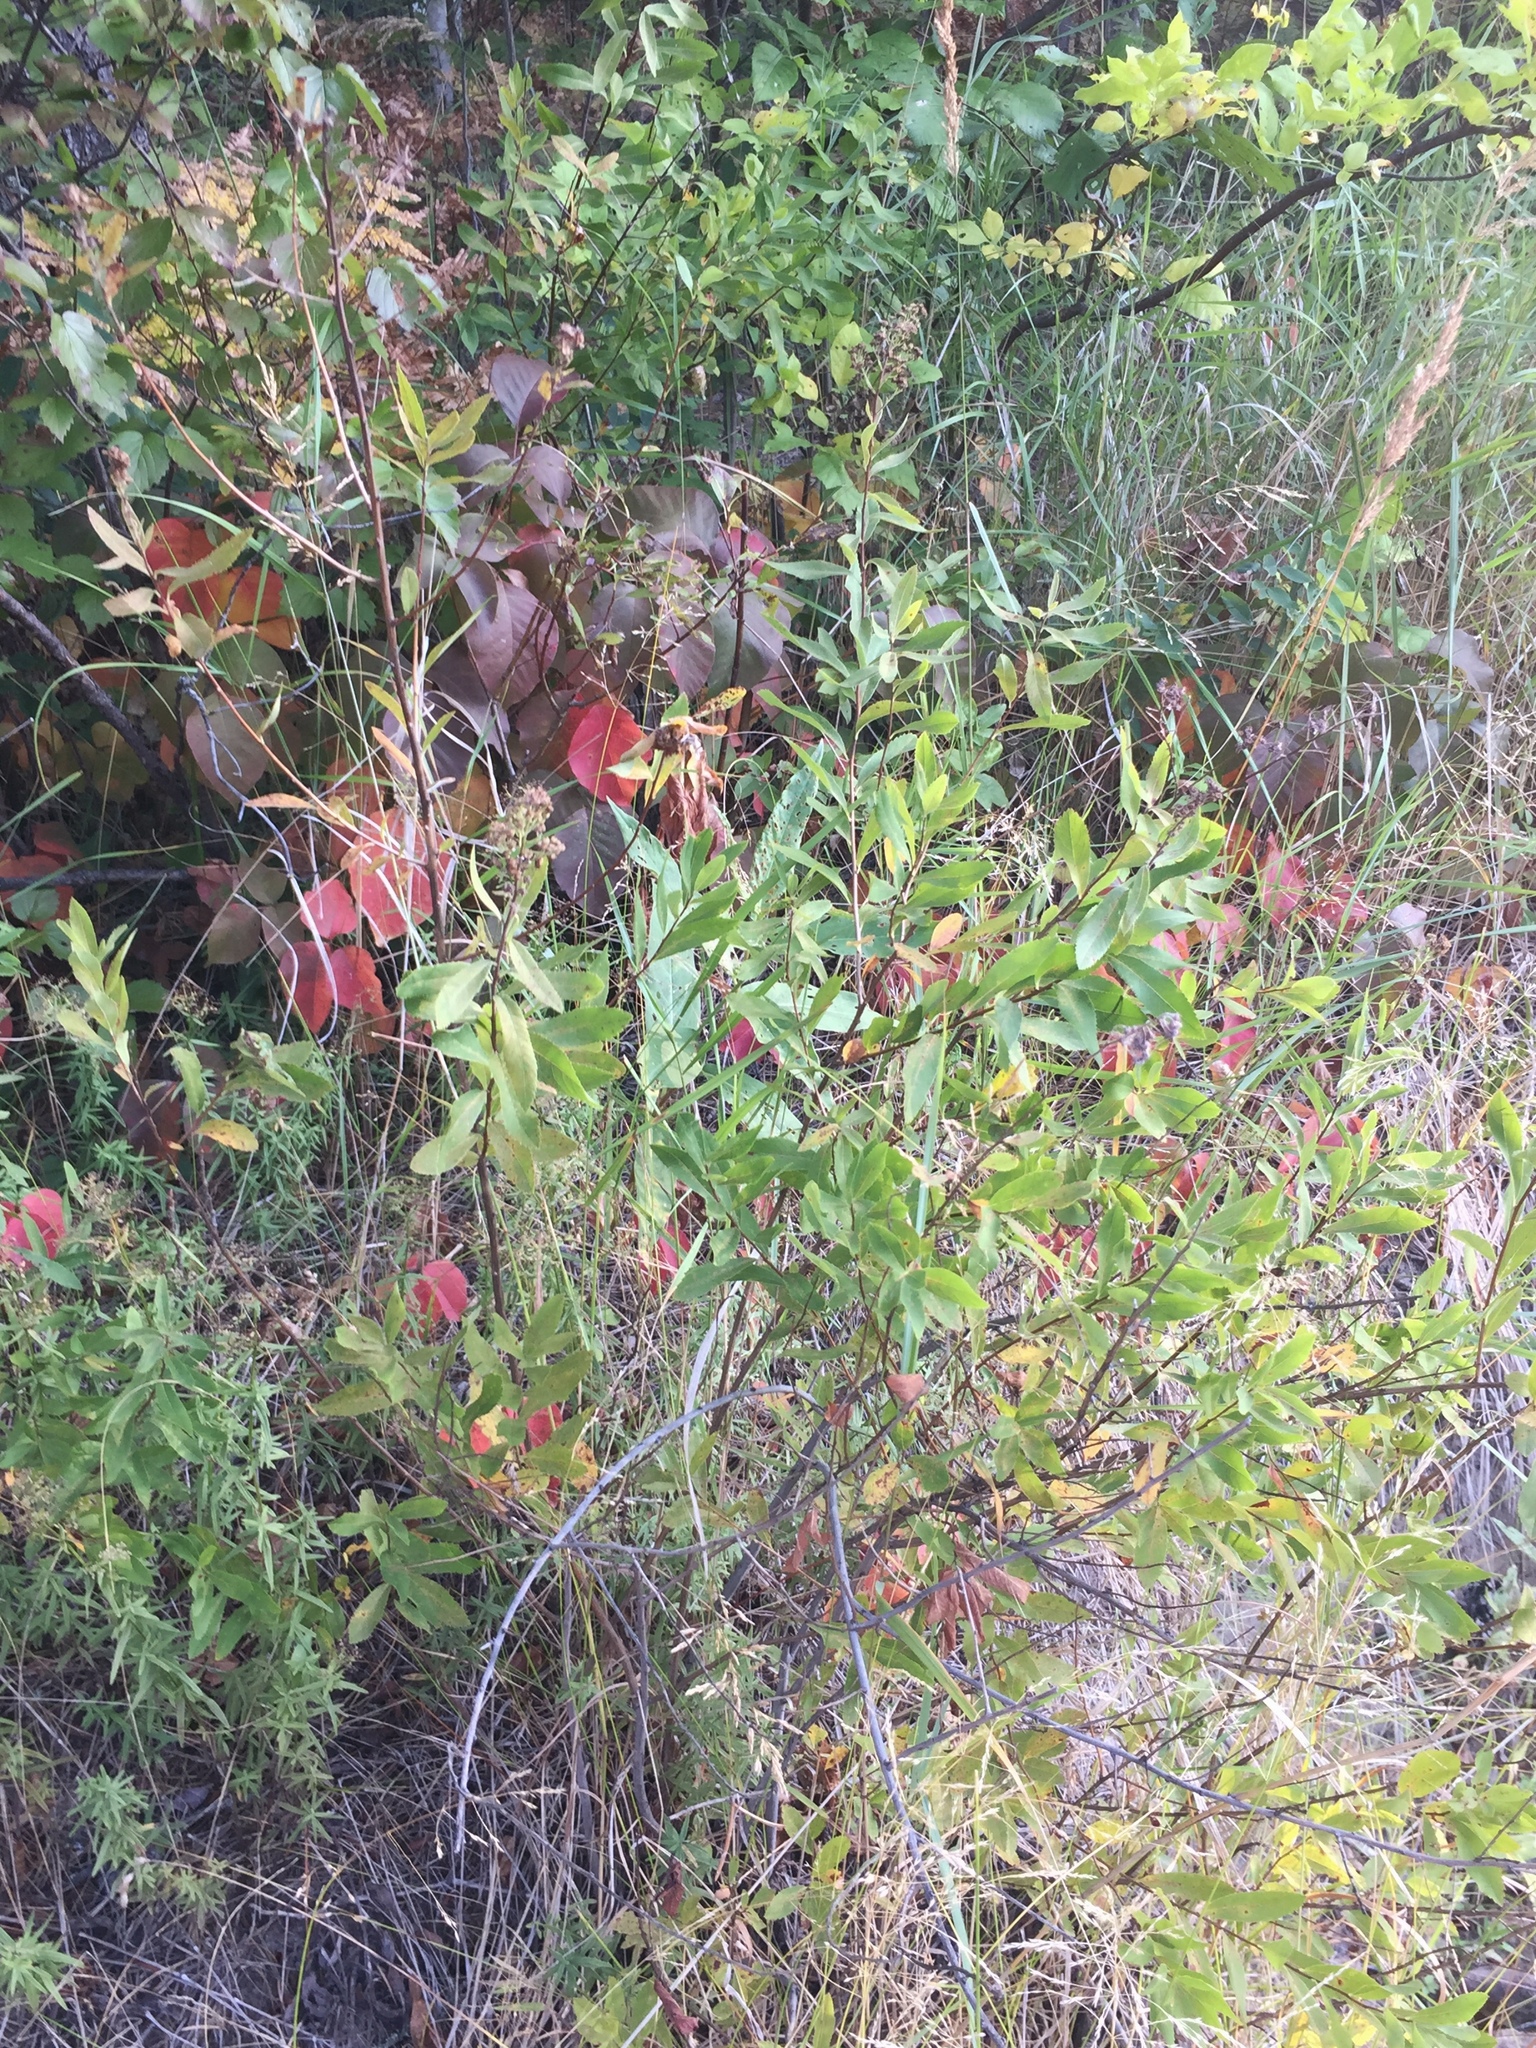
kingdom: Plantae
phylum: Tracheophyta
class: Magnoliopsida
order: Rosales
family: Rosaceae
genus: Spiraea
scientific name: Spiraea alba
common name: Pale bridewort
